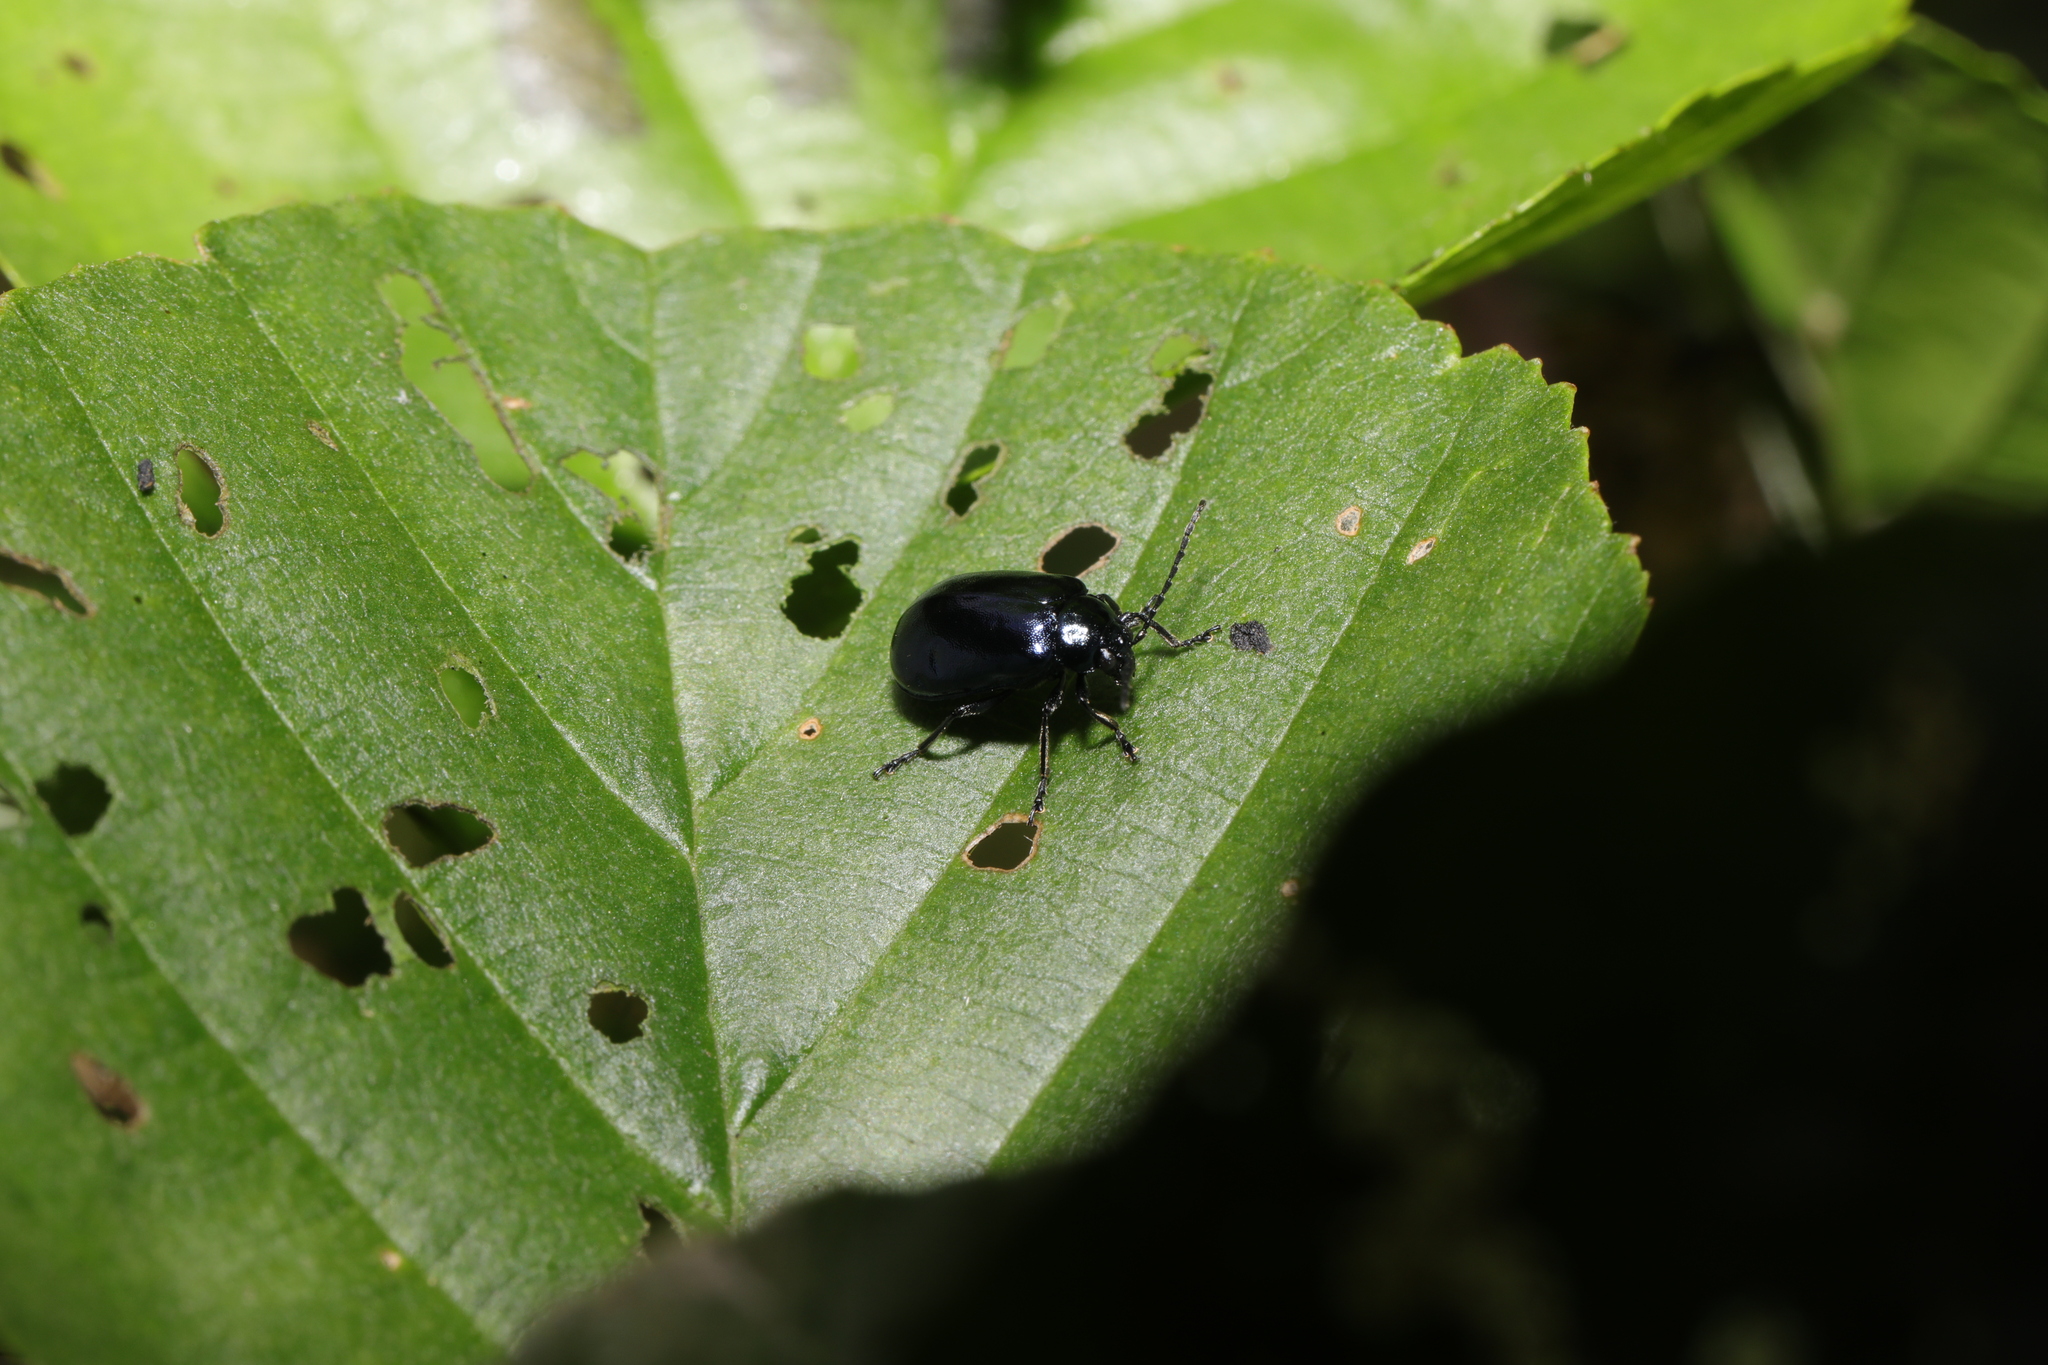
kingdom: Animalia
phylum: Arthropoda
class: Insecta
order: Coleoptera
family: Chrysomelidae
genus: Agelastica
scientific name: Agelastica alni
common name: Alder leaf beetle
